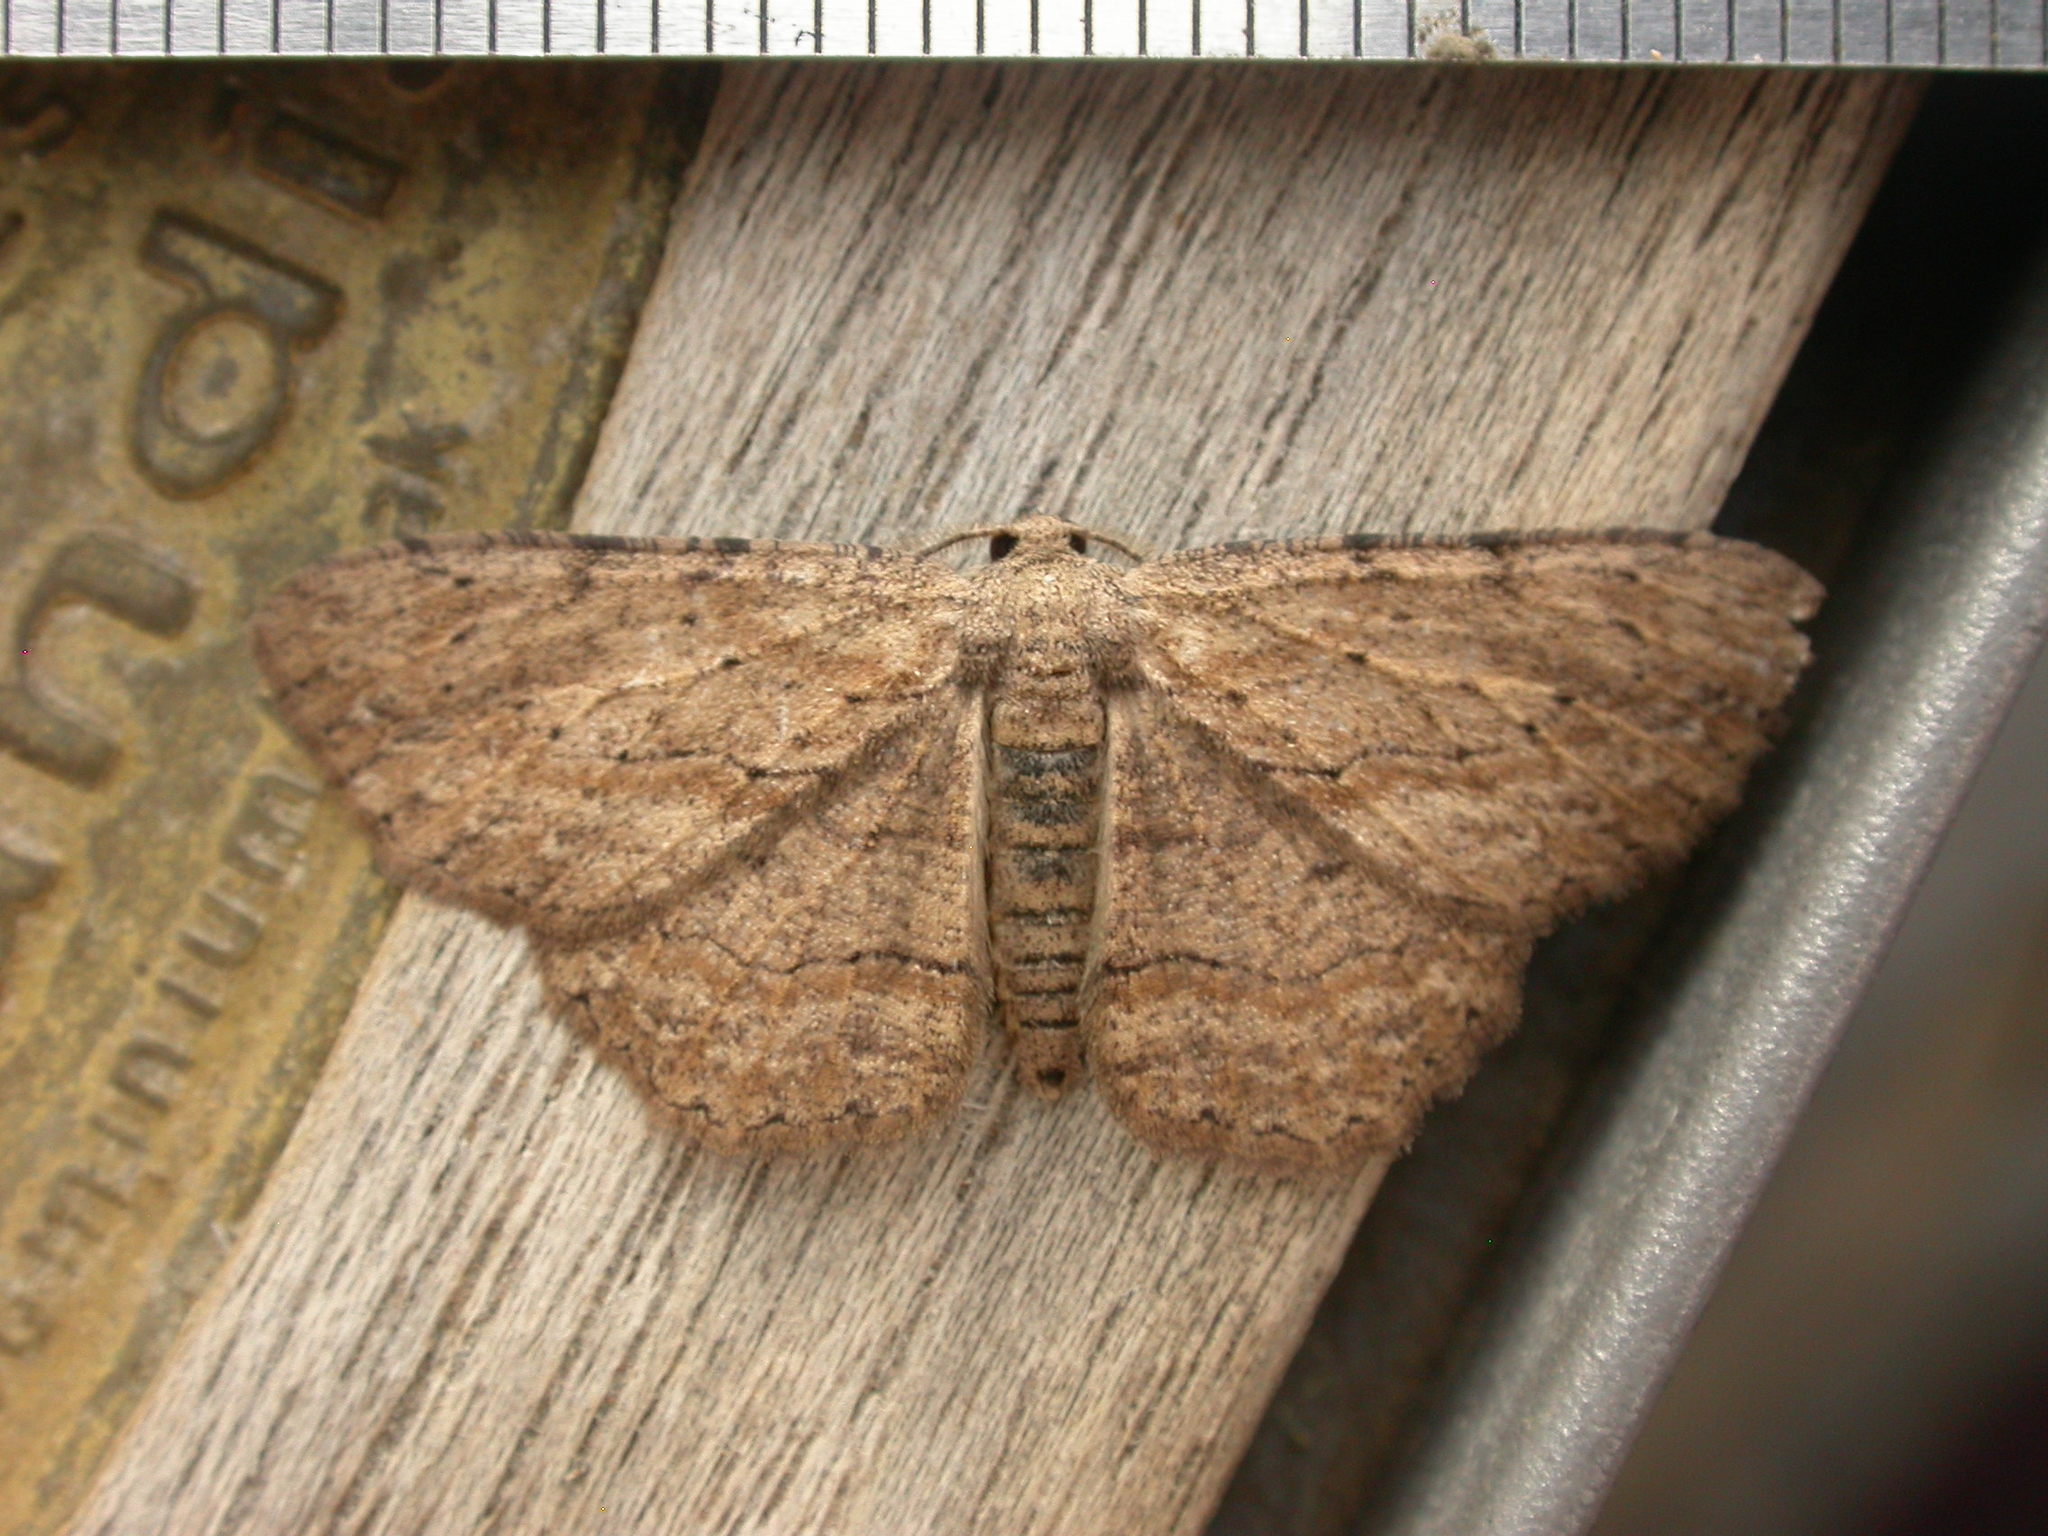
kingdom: Animalia
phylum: Arthropoda
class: Insecta
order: Lepidoptera
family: Geometridae
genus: Ectropis
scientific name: Ectropis excursaria
